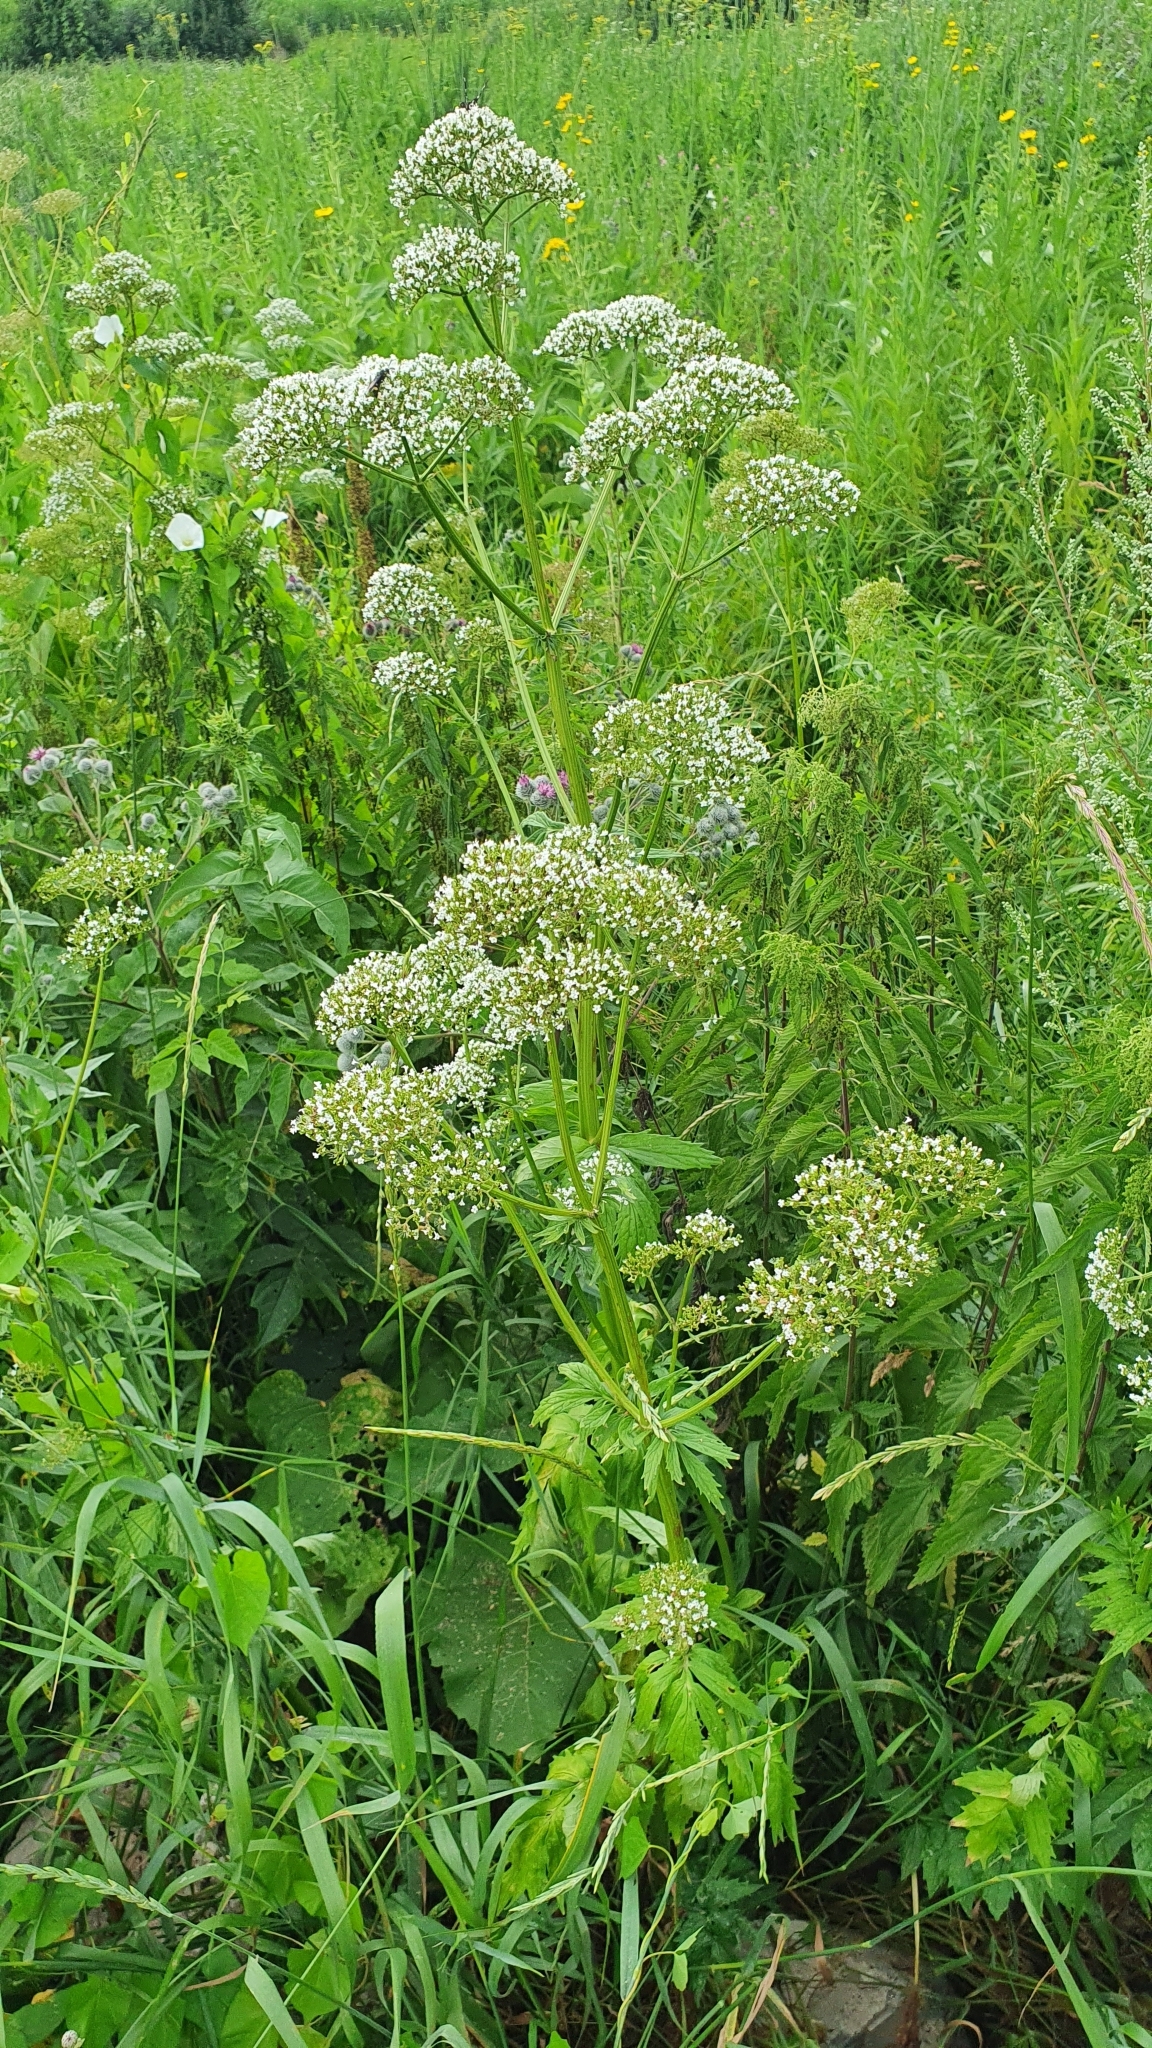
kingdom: Plantae
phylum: Tracheophyta
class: Magnoliopsida
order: Dipsacales
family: Caprifoliaceae
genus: Valeriana
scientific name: Valeriana officinalis
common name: Common valerian
